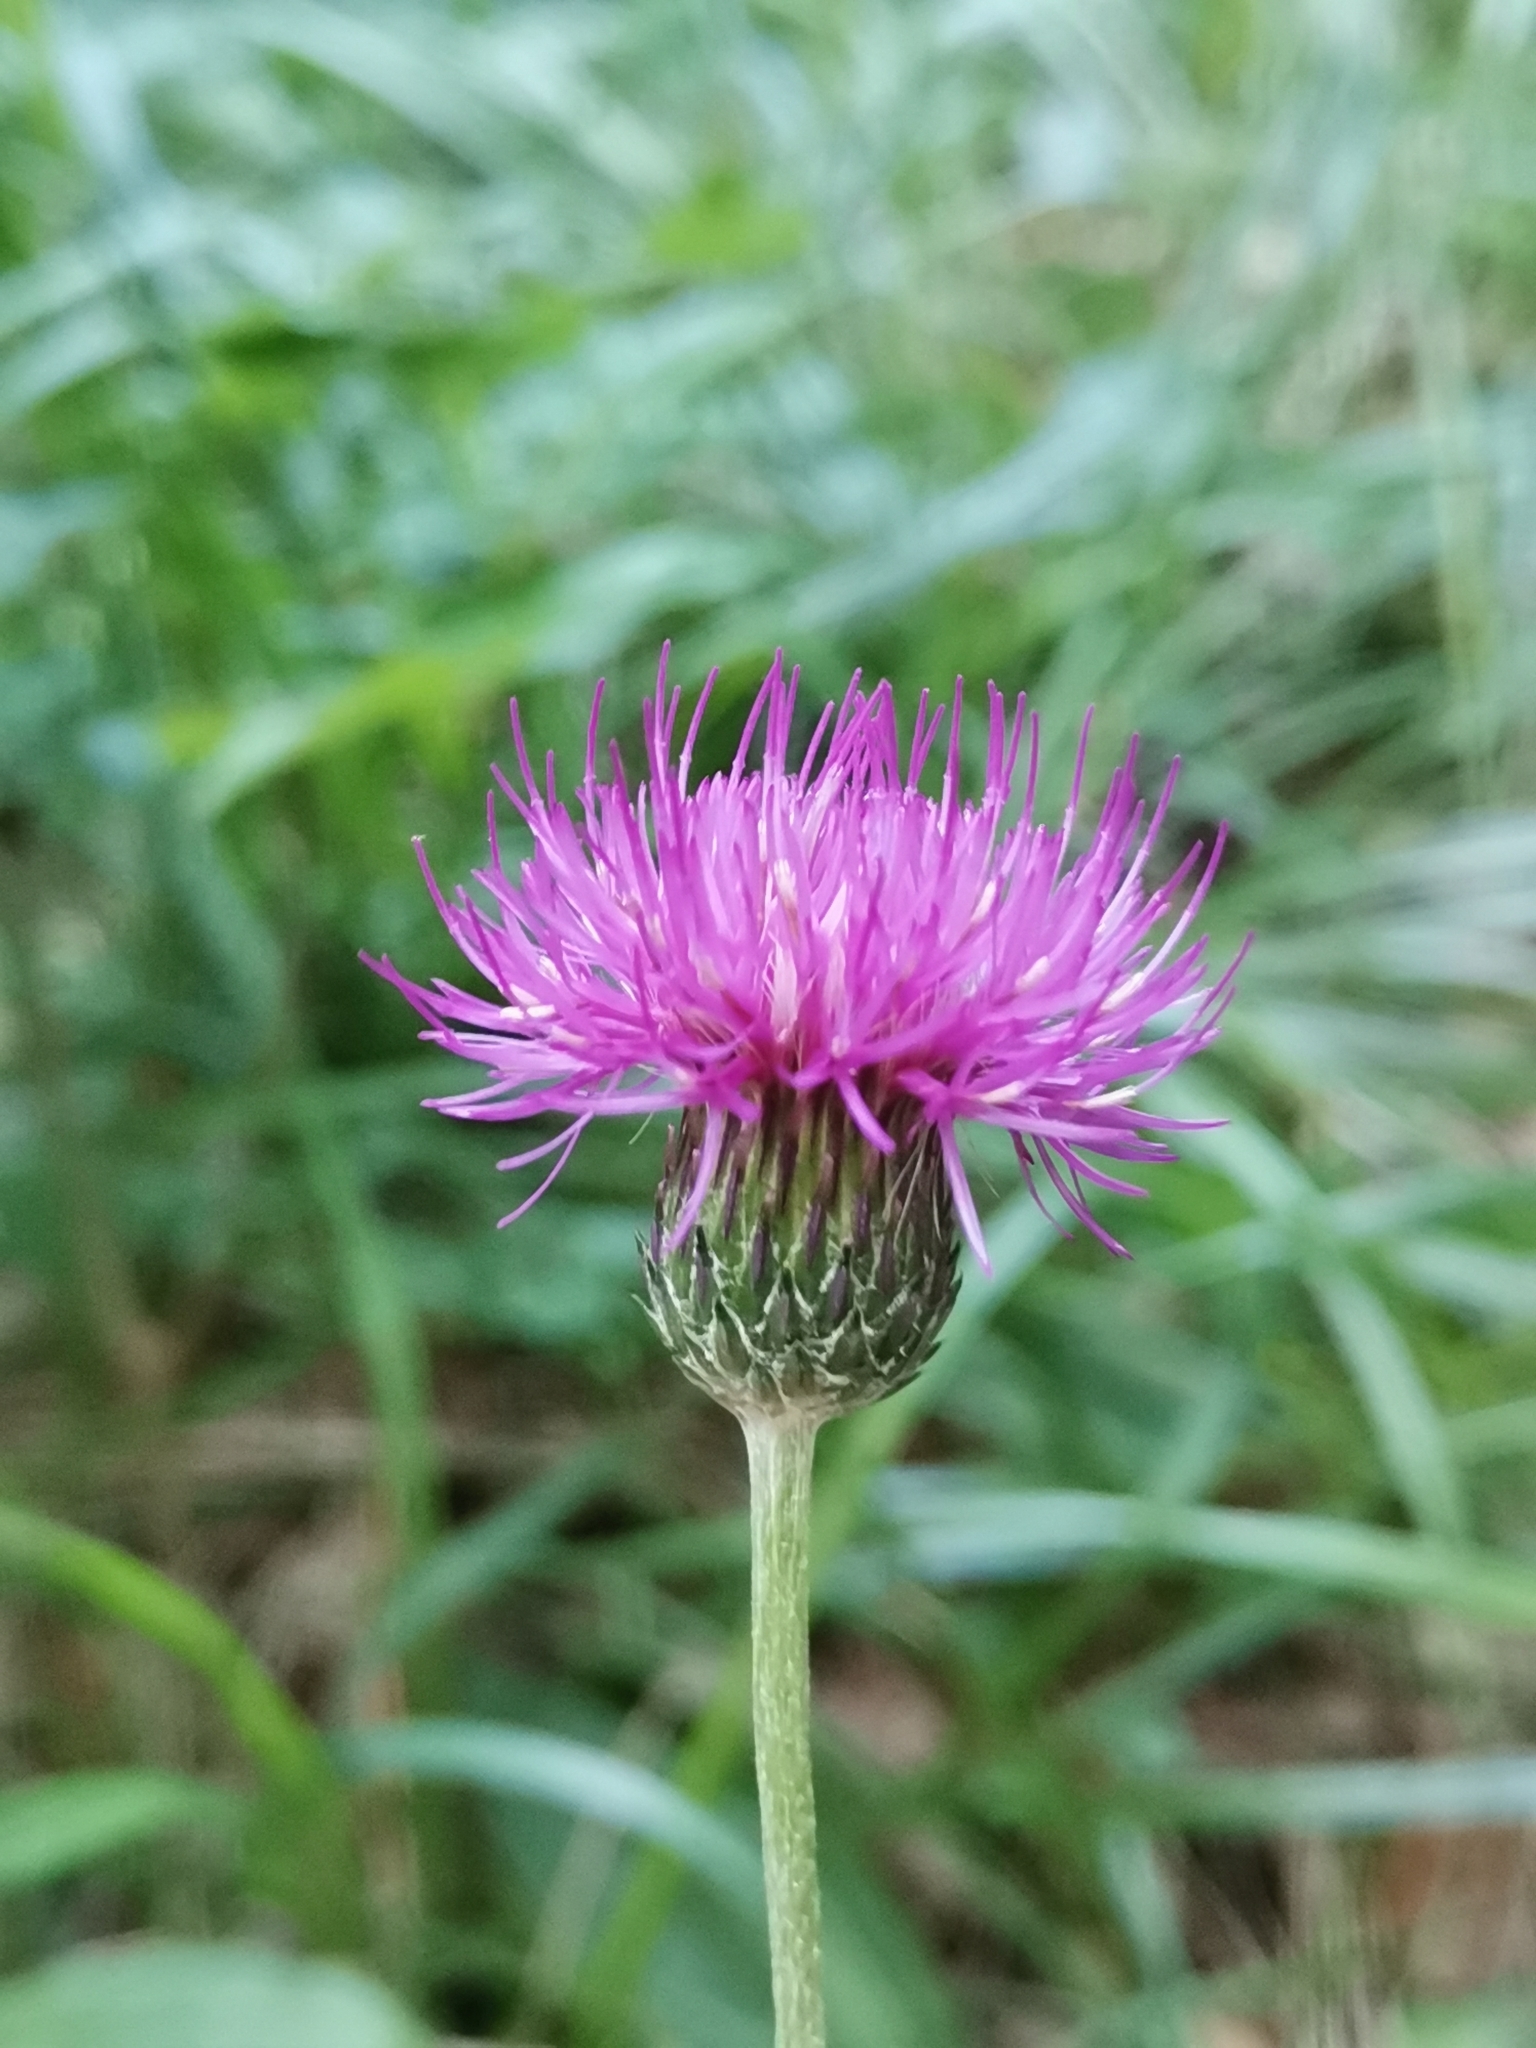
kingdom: Plantae
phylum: Tracheophyta
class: Magnoliopsida
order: Asterales
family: Asteraceae
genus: Cirsium
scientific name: Cirsium pannonicum
